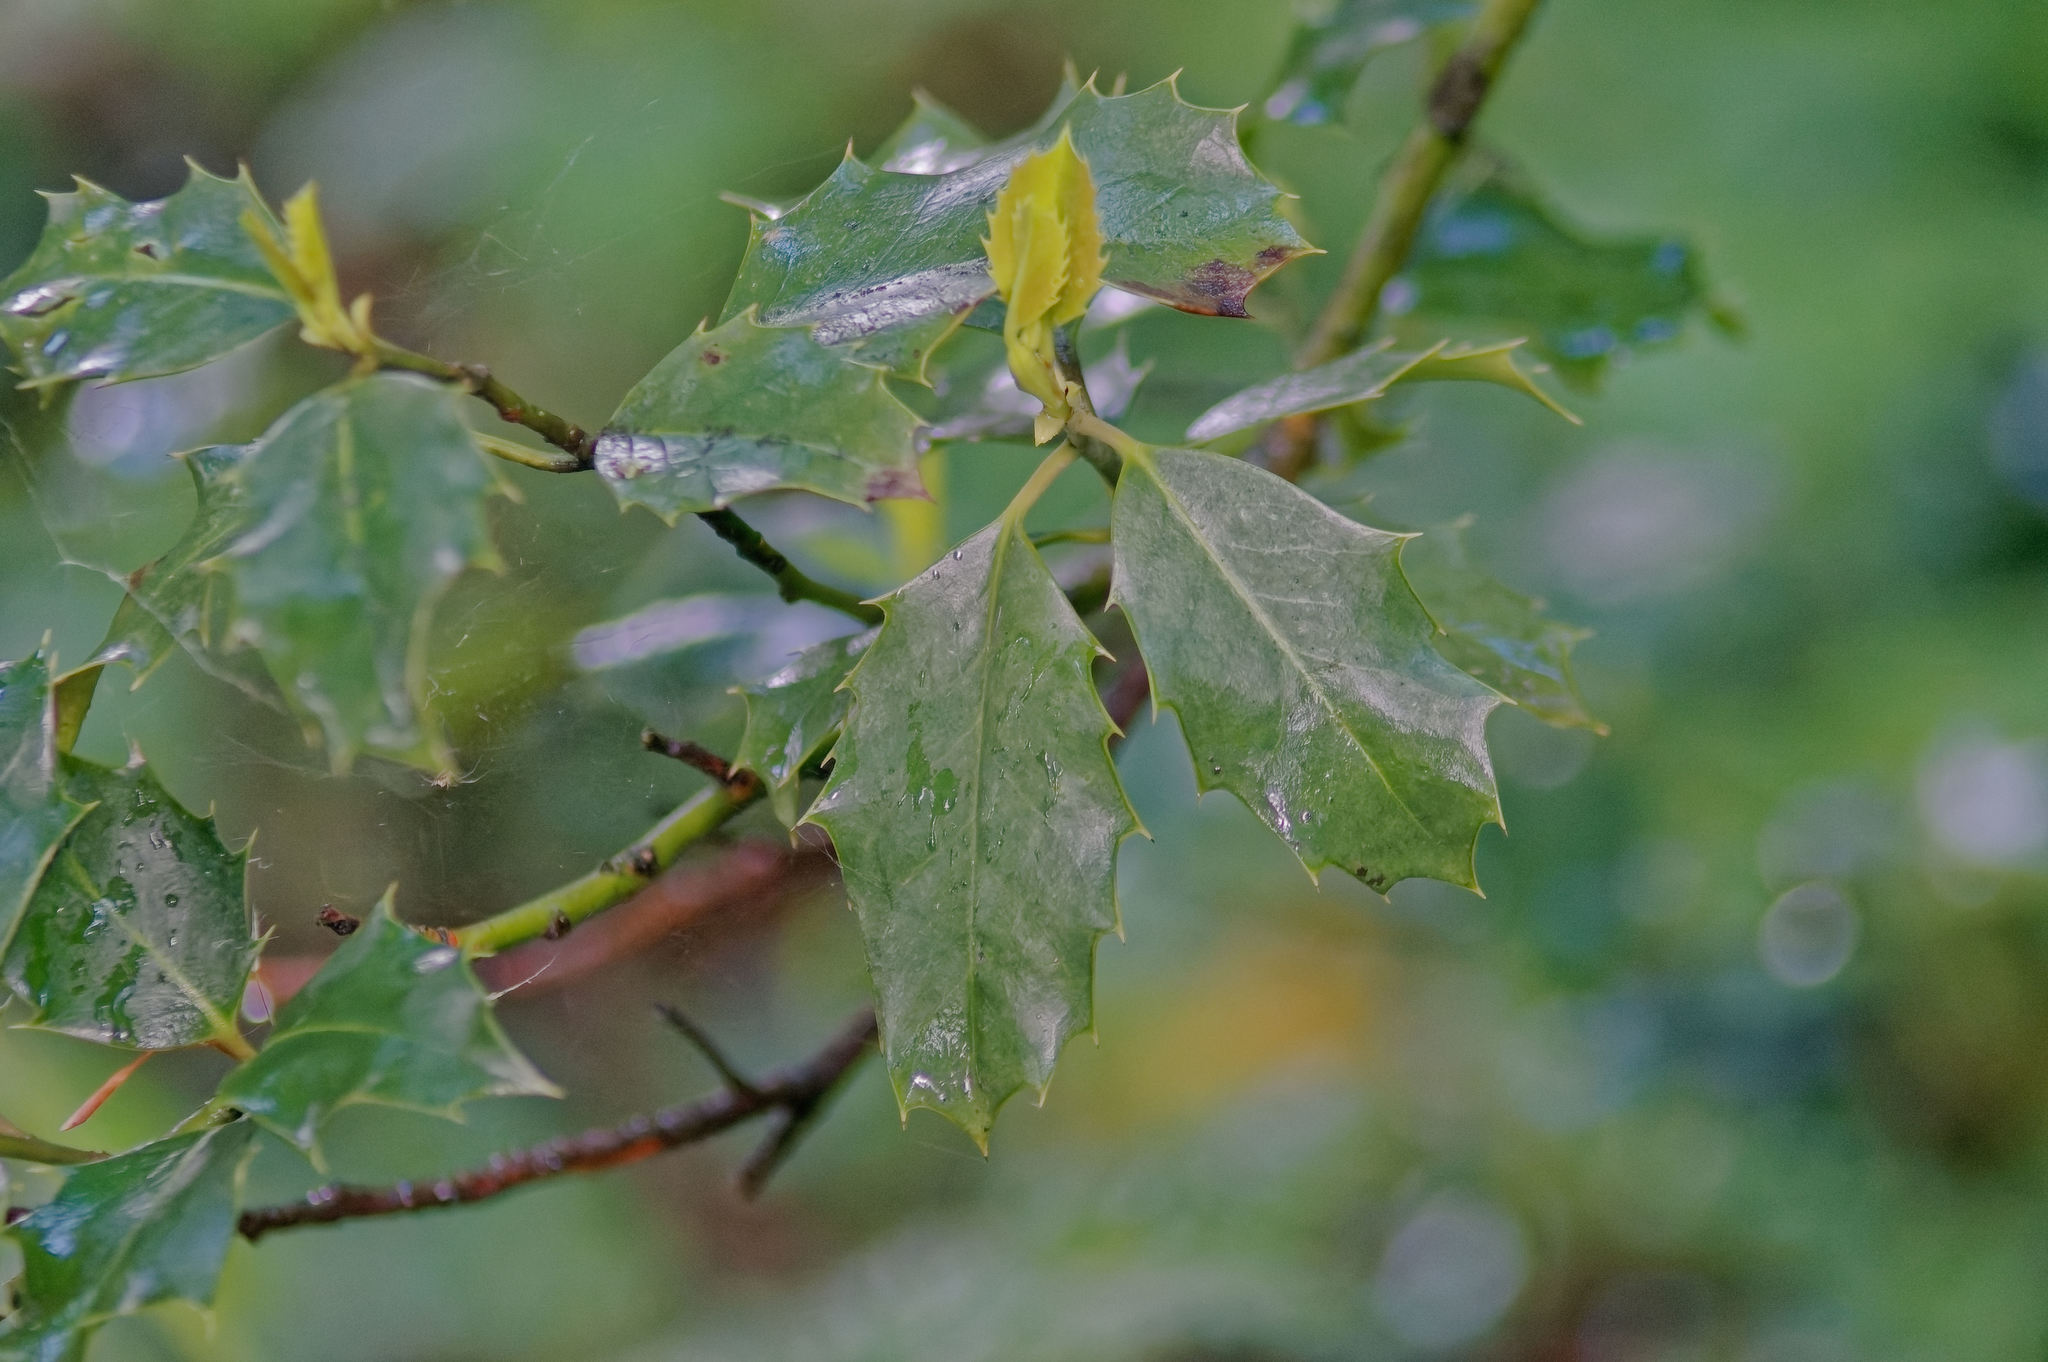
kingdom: Plantae
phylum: Tracheophyta
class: Magnoliopsida
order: Aquifoliales
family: Aquifoliaceae
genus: Ilex
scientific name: Ilex aquifolium
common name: English holly
